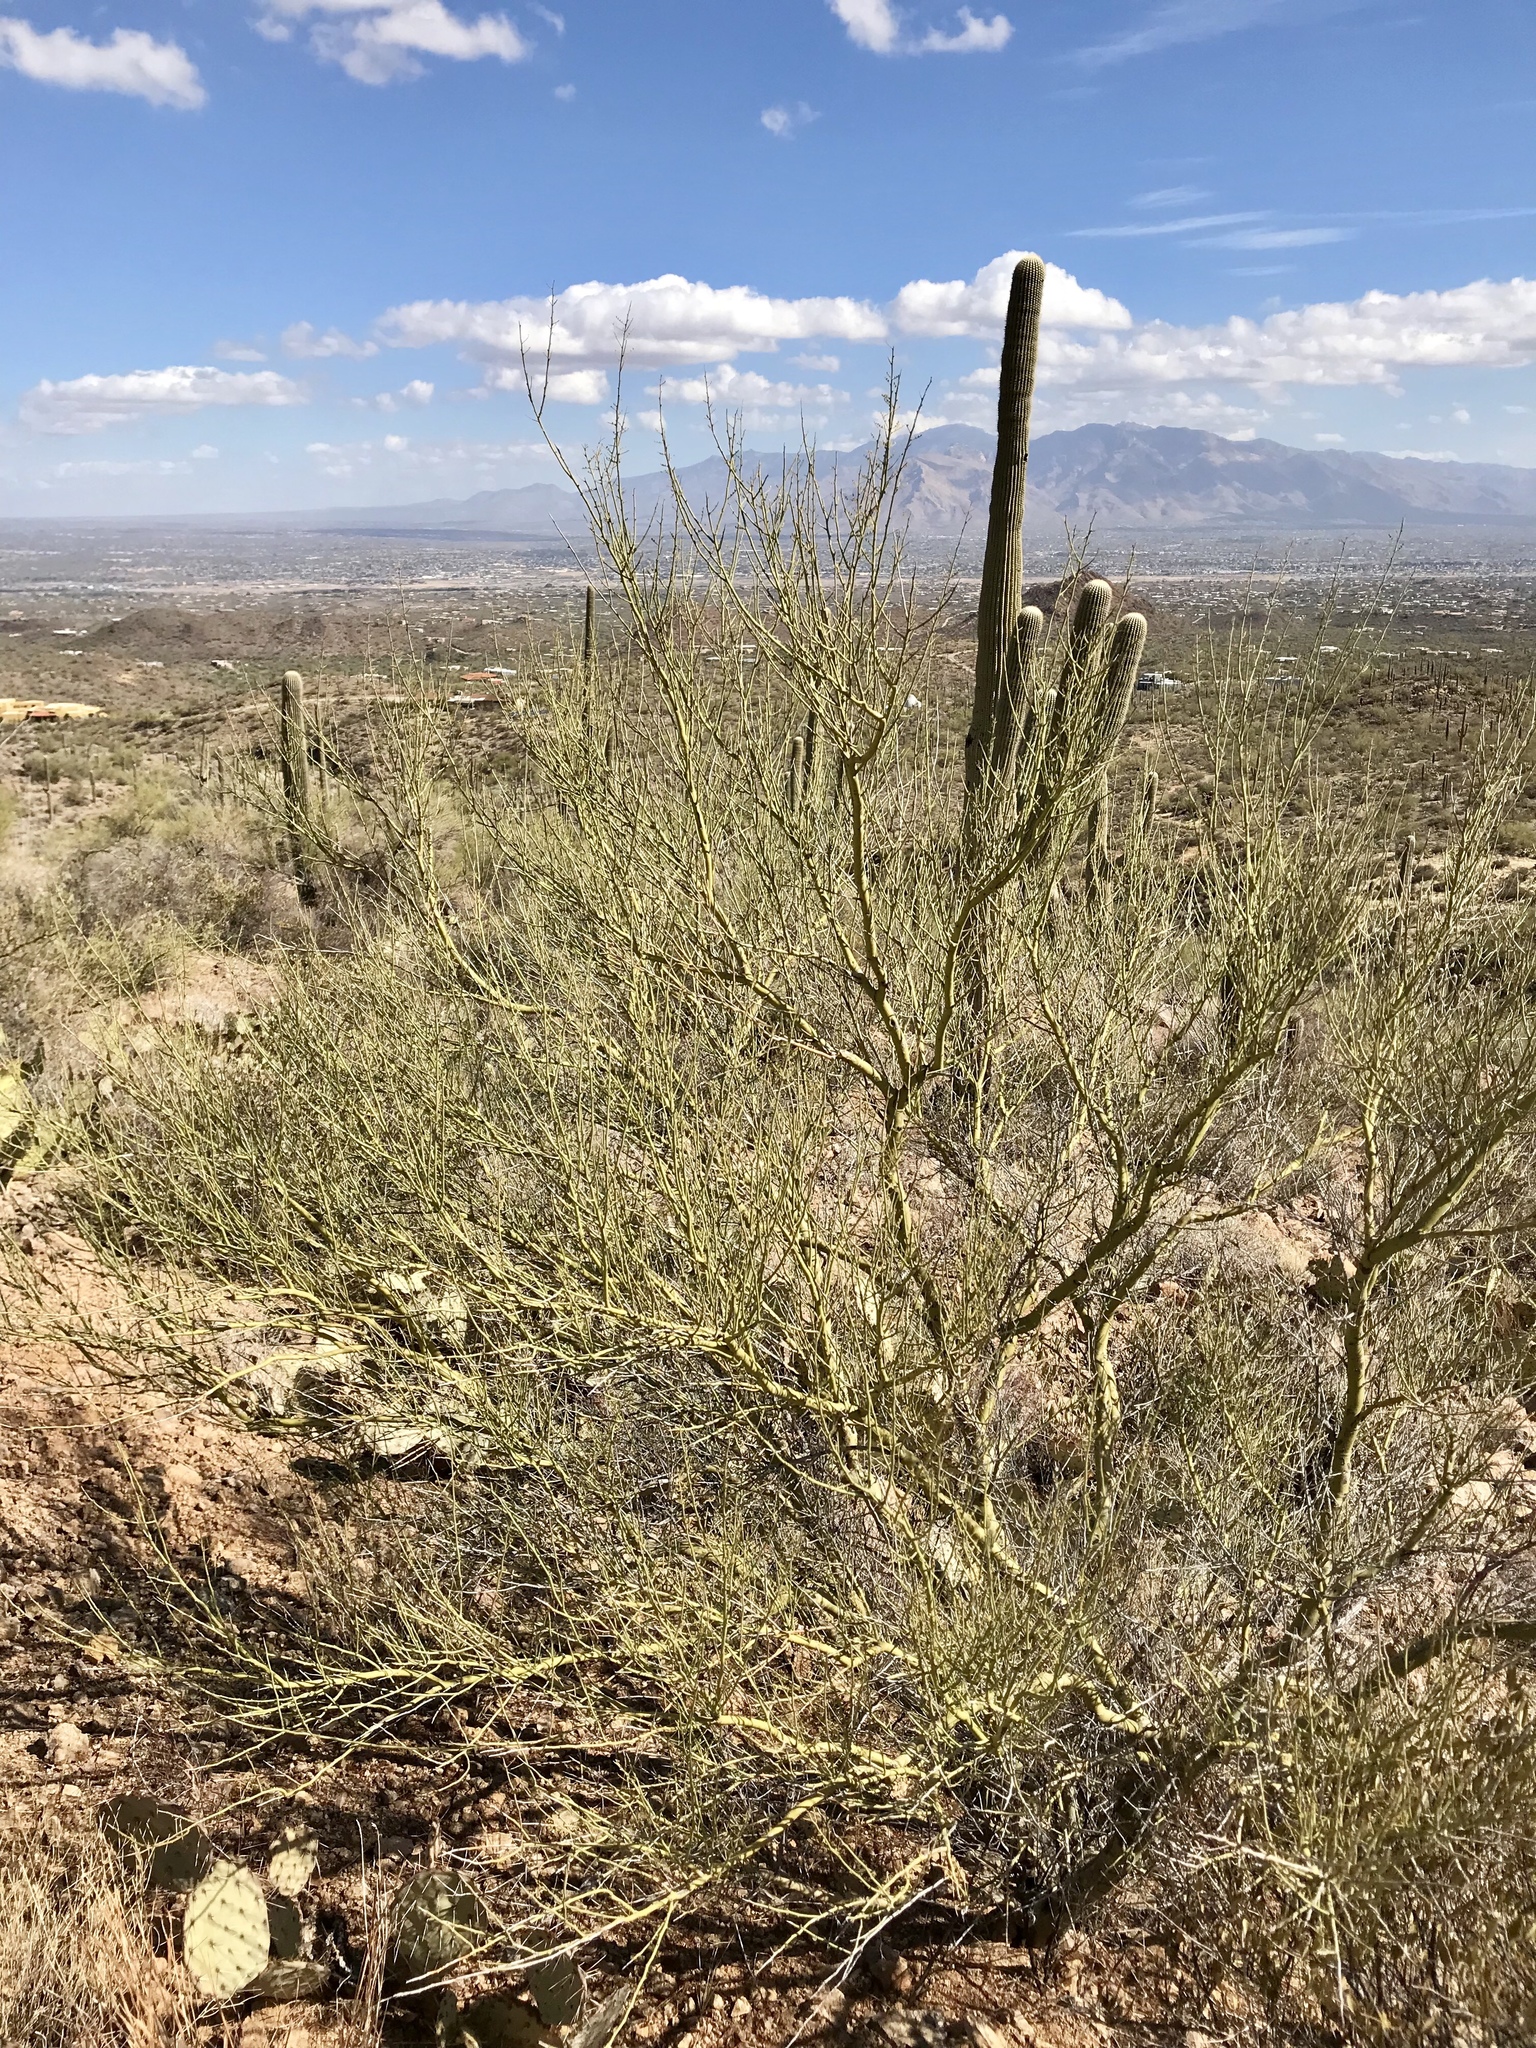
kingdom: Plantae
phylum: Tracheophyta
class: Magnoliopsida
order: Fabales
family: Fabaceae
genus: Parkinsonia
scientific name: Parkinsonia microphylla
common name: Yellow paloverde
